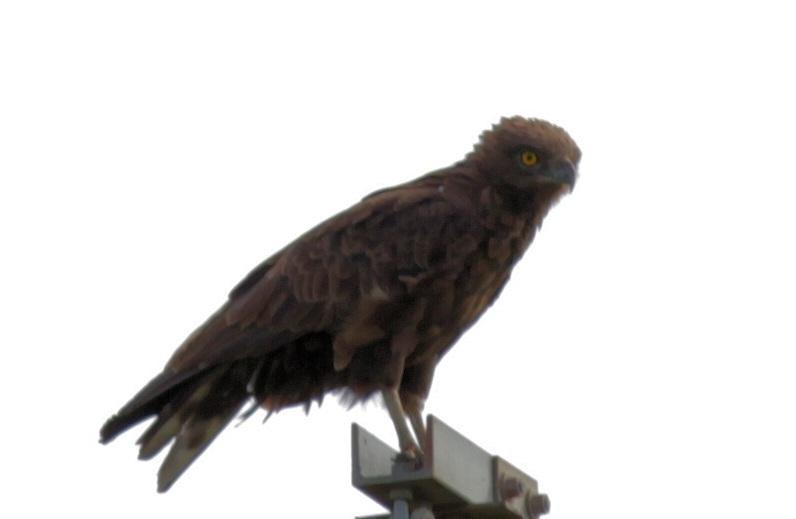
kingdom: Animalia
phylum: Chordata
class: Aves
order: Accipitriformes
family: Accipitridae
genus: Circaetus
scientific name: Circaetus cinereus
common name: Brown snake eagle
